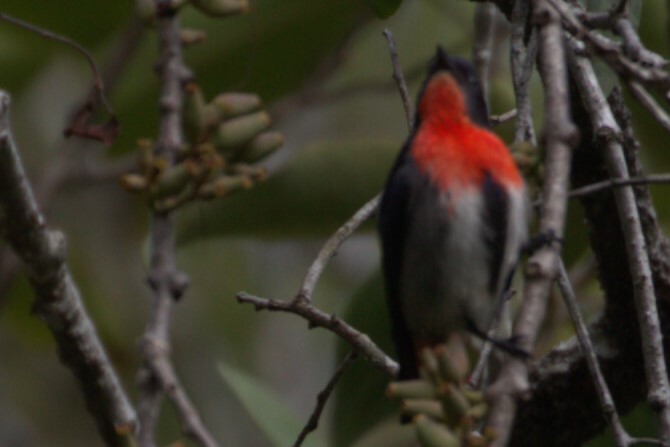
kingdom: Animalia
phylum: Chordata
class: Aves
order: Passeriformes
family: Dicaeidae
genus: Dicaeum
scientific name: Dicaeum hirundinaceum
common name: Mistletoebird
